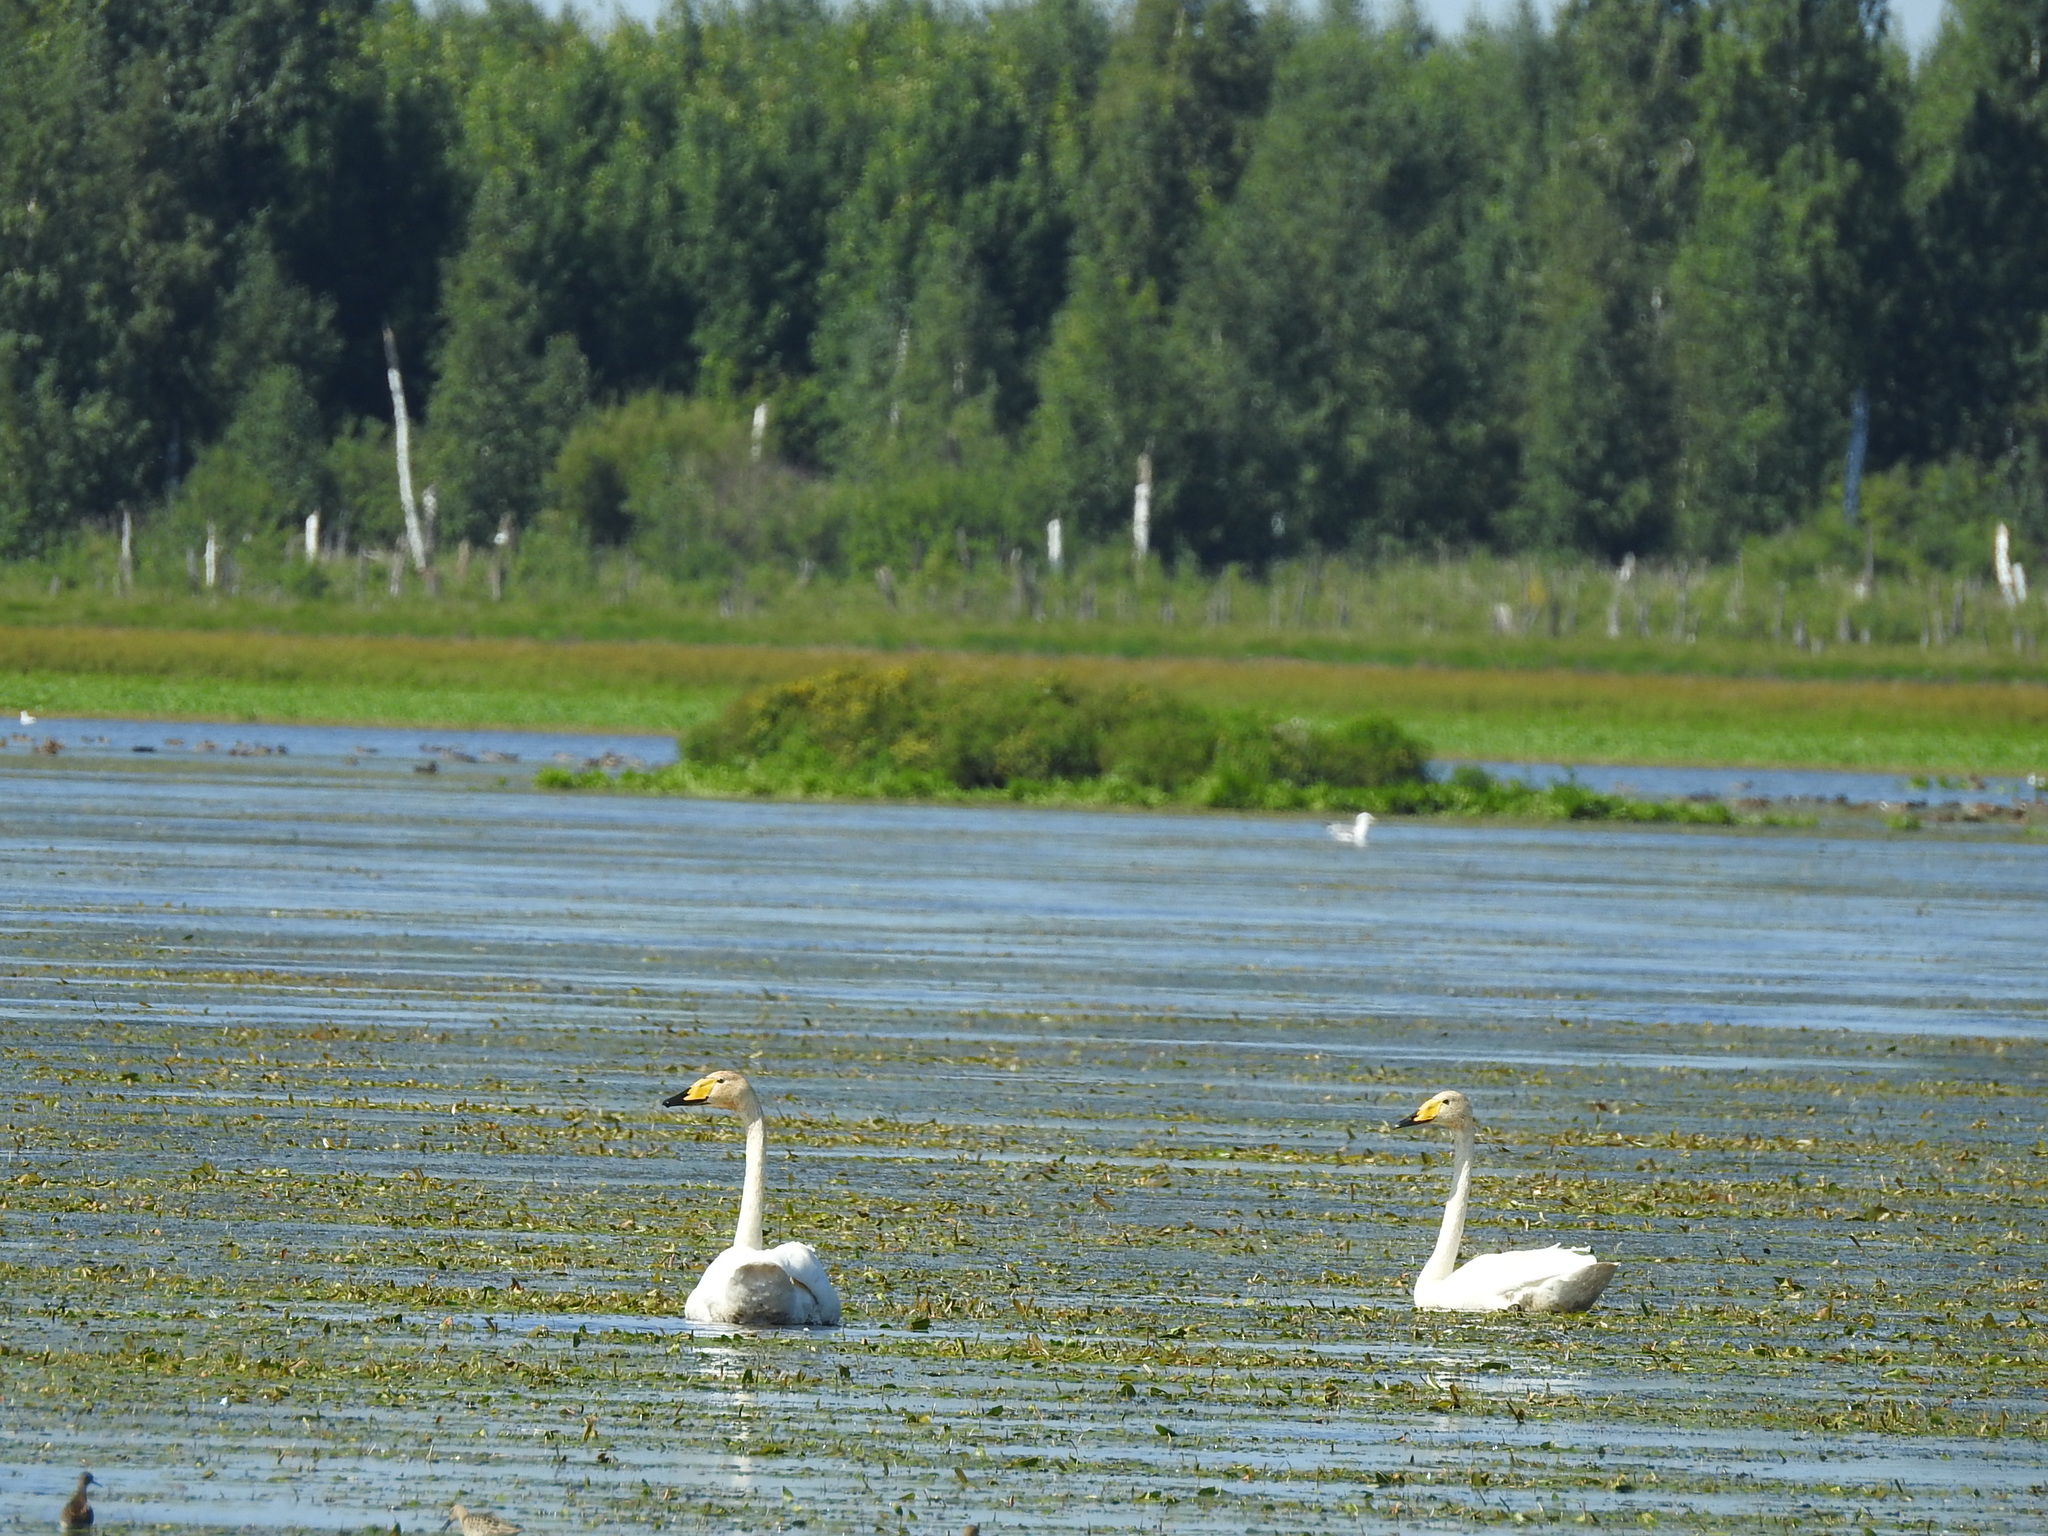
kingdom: Animalia
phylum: Chordata
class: Aves
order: Anseriformes
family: Anatidae
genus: Cygnus
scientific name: Cygnus cygnus
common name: Whooper swan
